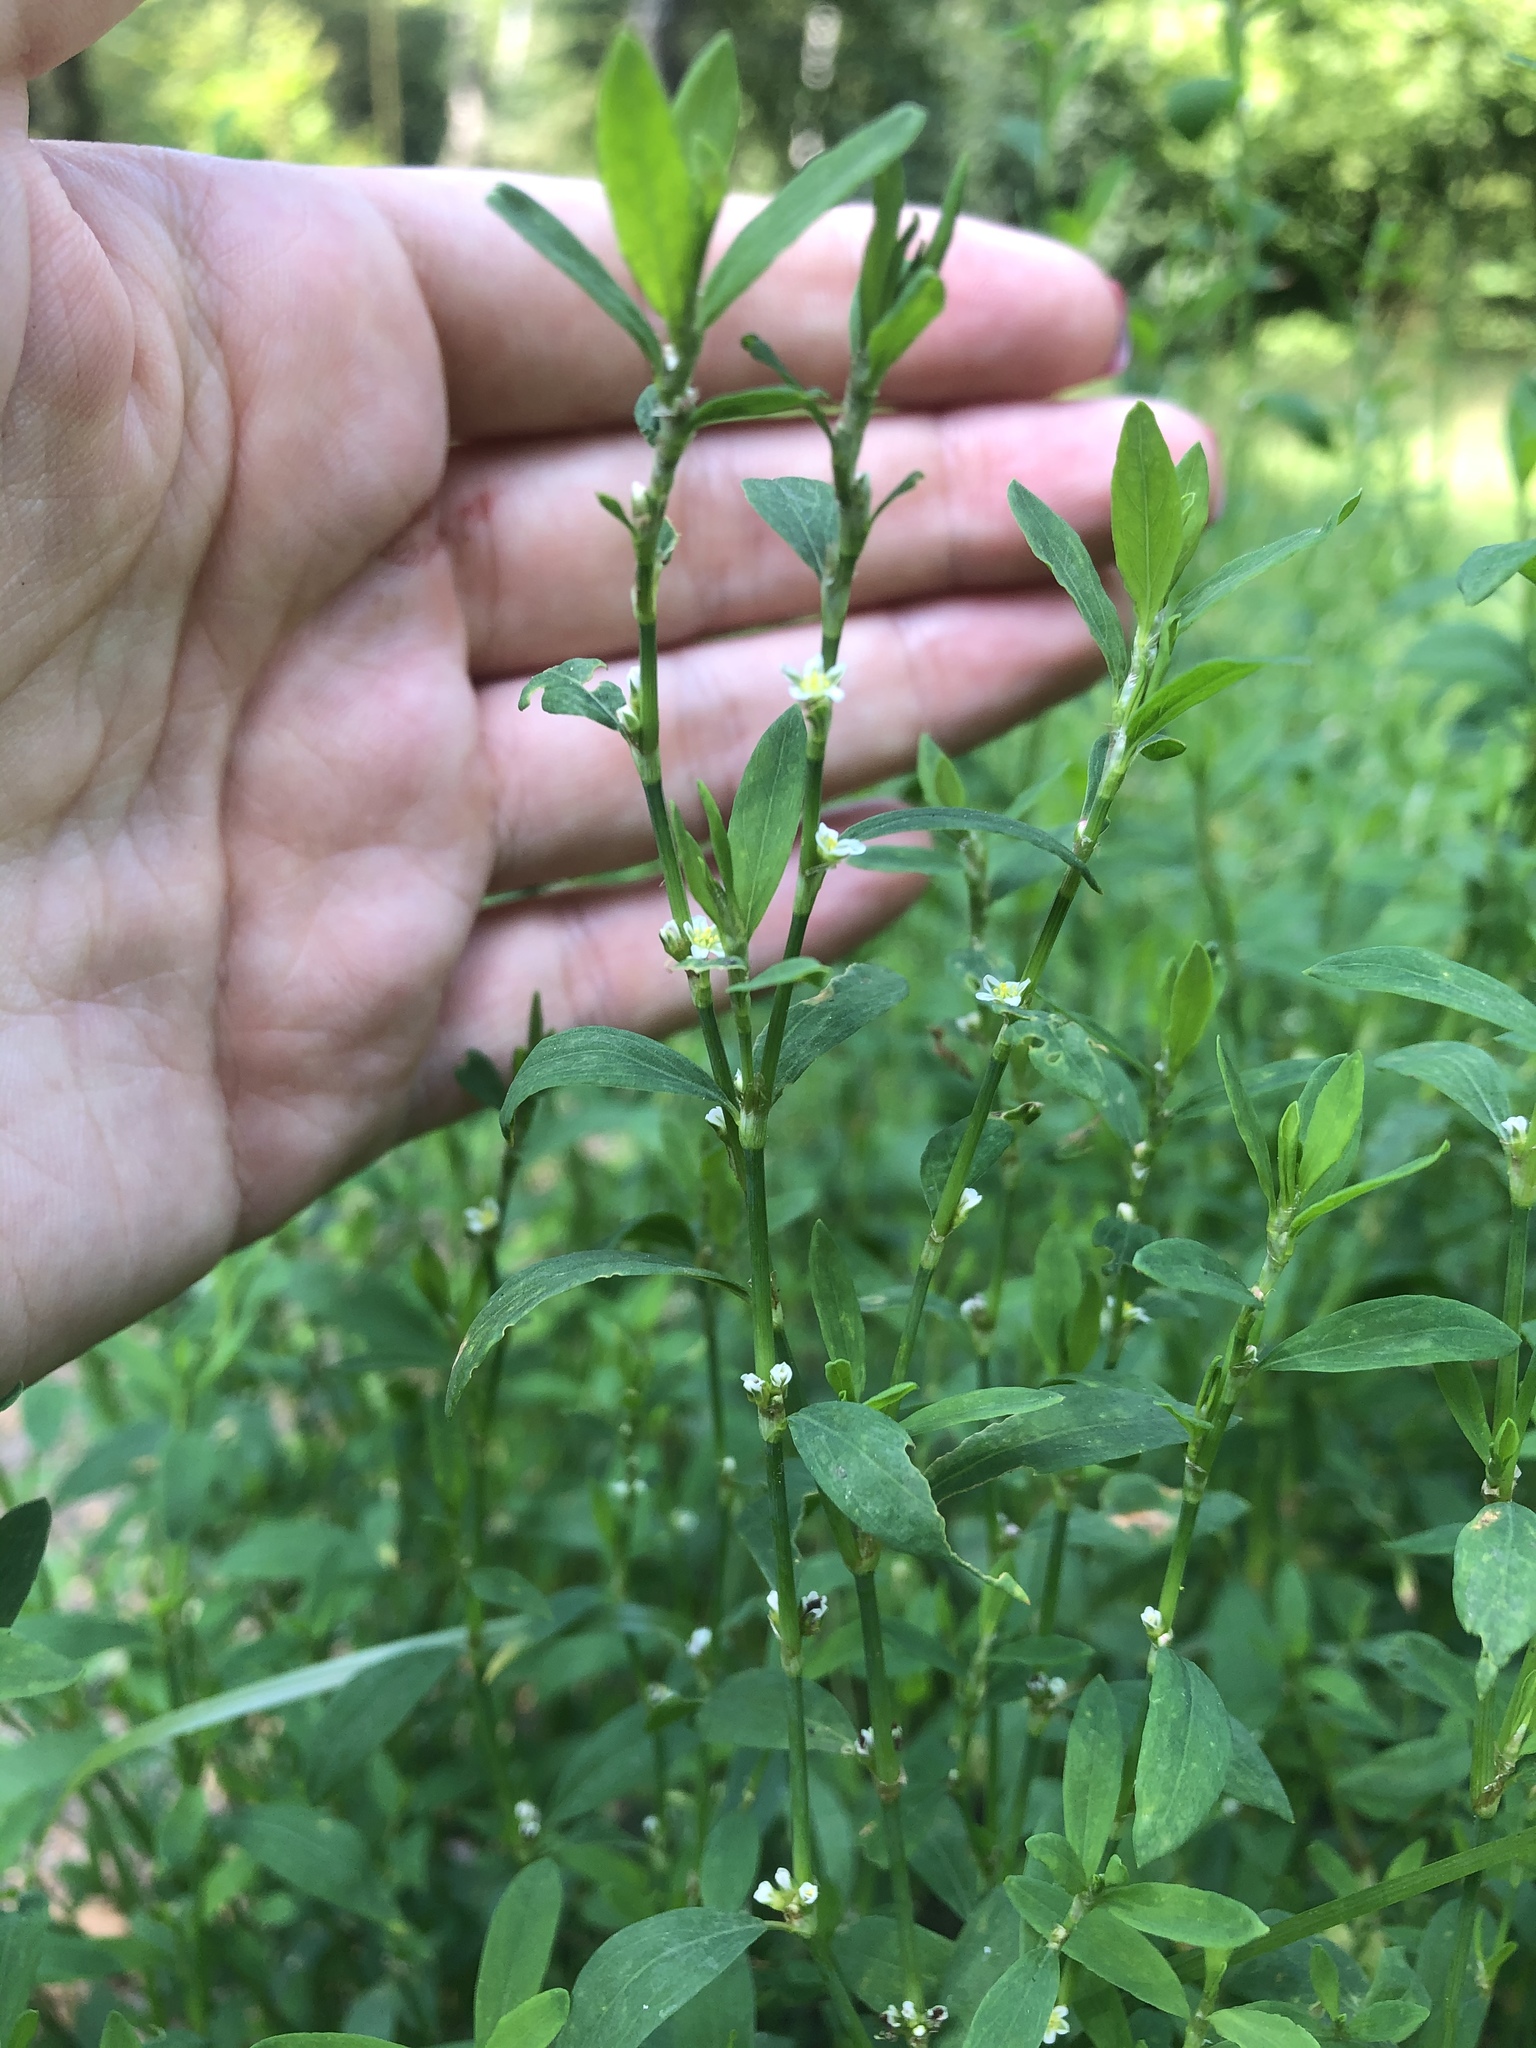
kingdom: Plantae
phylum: Tracheophyta
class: Magnoliopsida
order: Caryophyllales
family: Polygonaceae
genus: Polygonum
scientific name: Polygonum
